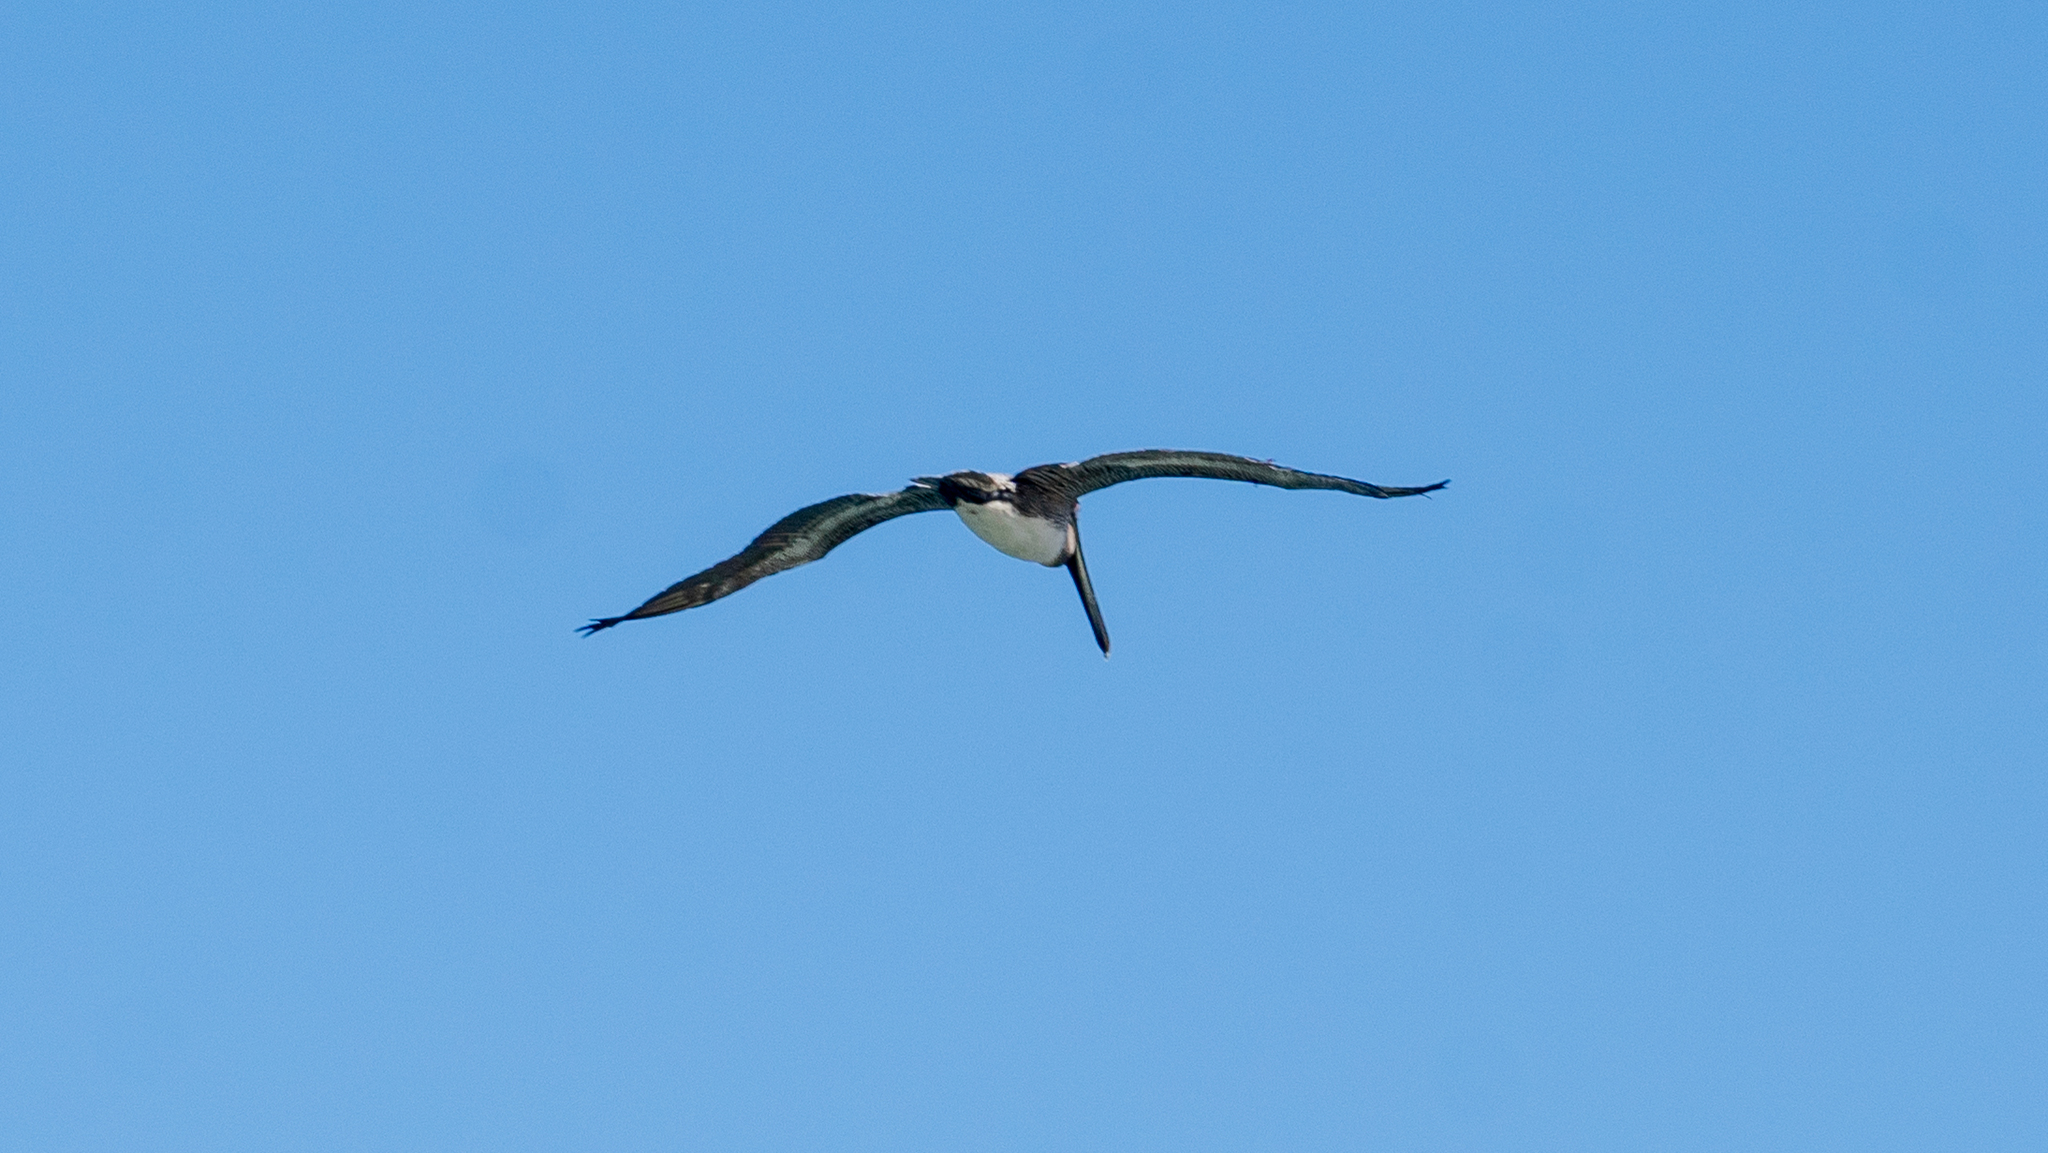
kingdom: Animalia
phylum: Chordata
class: Aves
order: Pelecaniformes
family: Pelecanidae
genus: Pelecanus
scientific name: Pelecanus occidentalis
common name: Brown pelican
